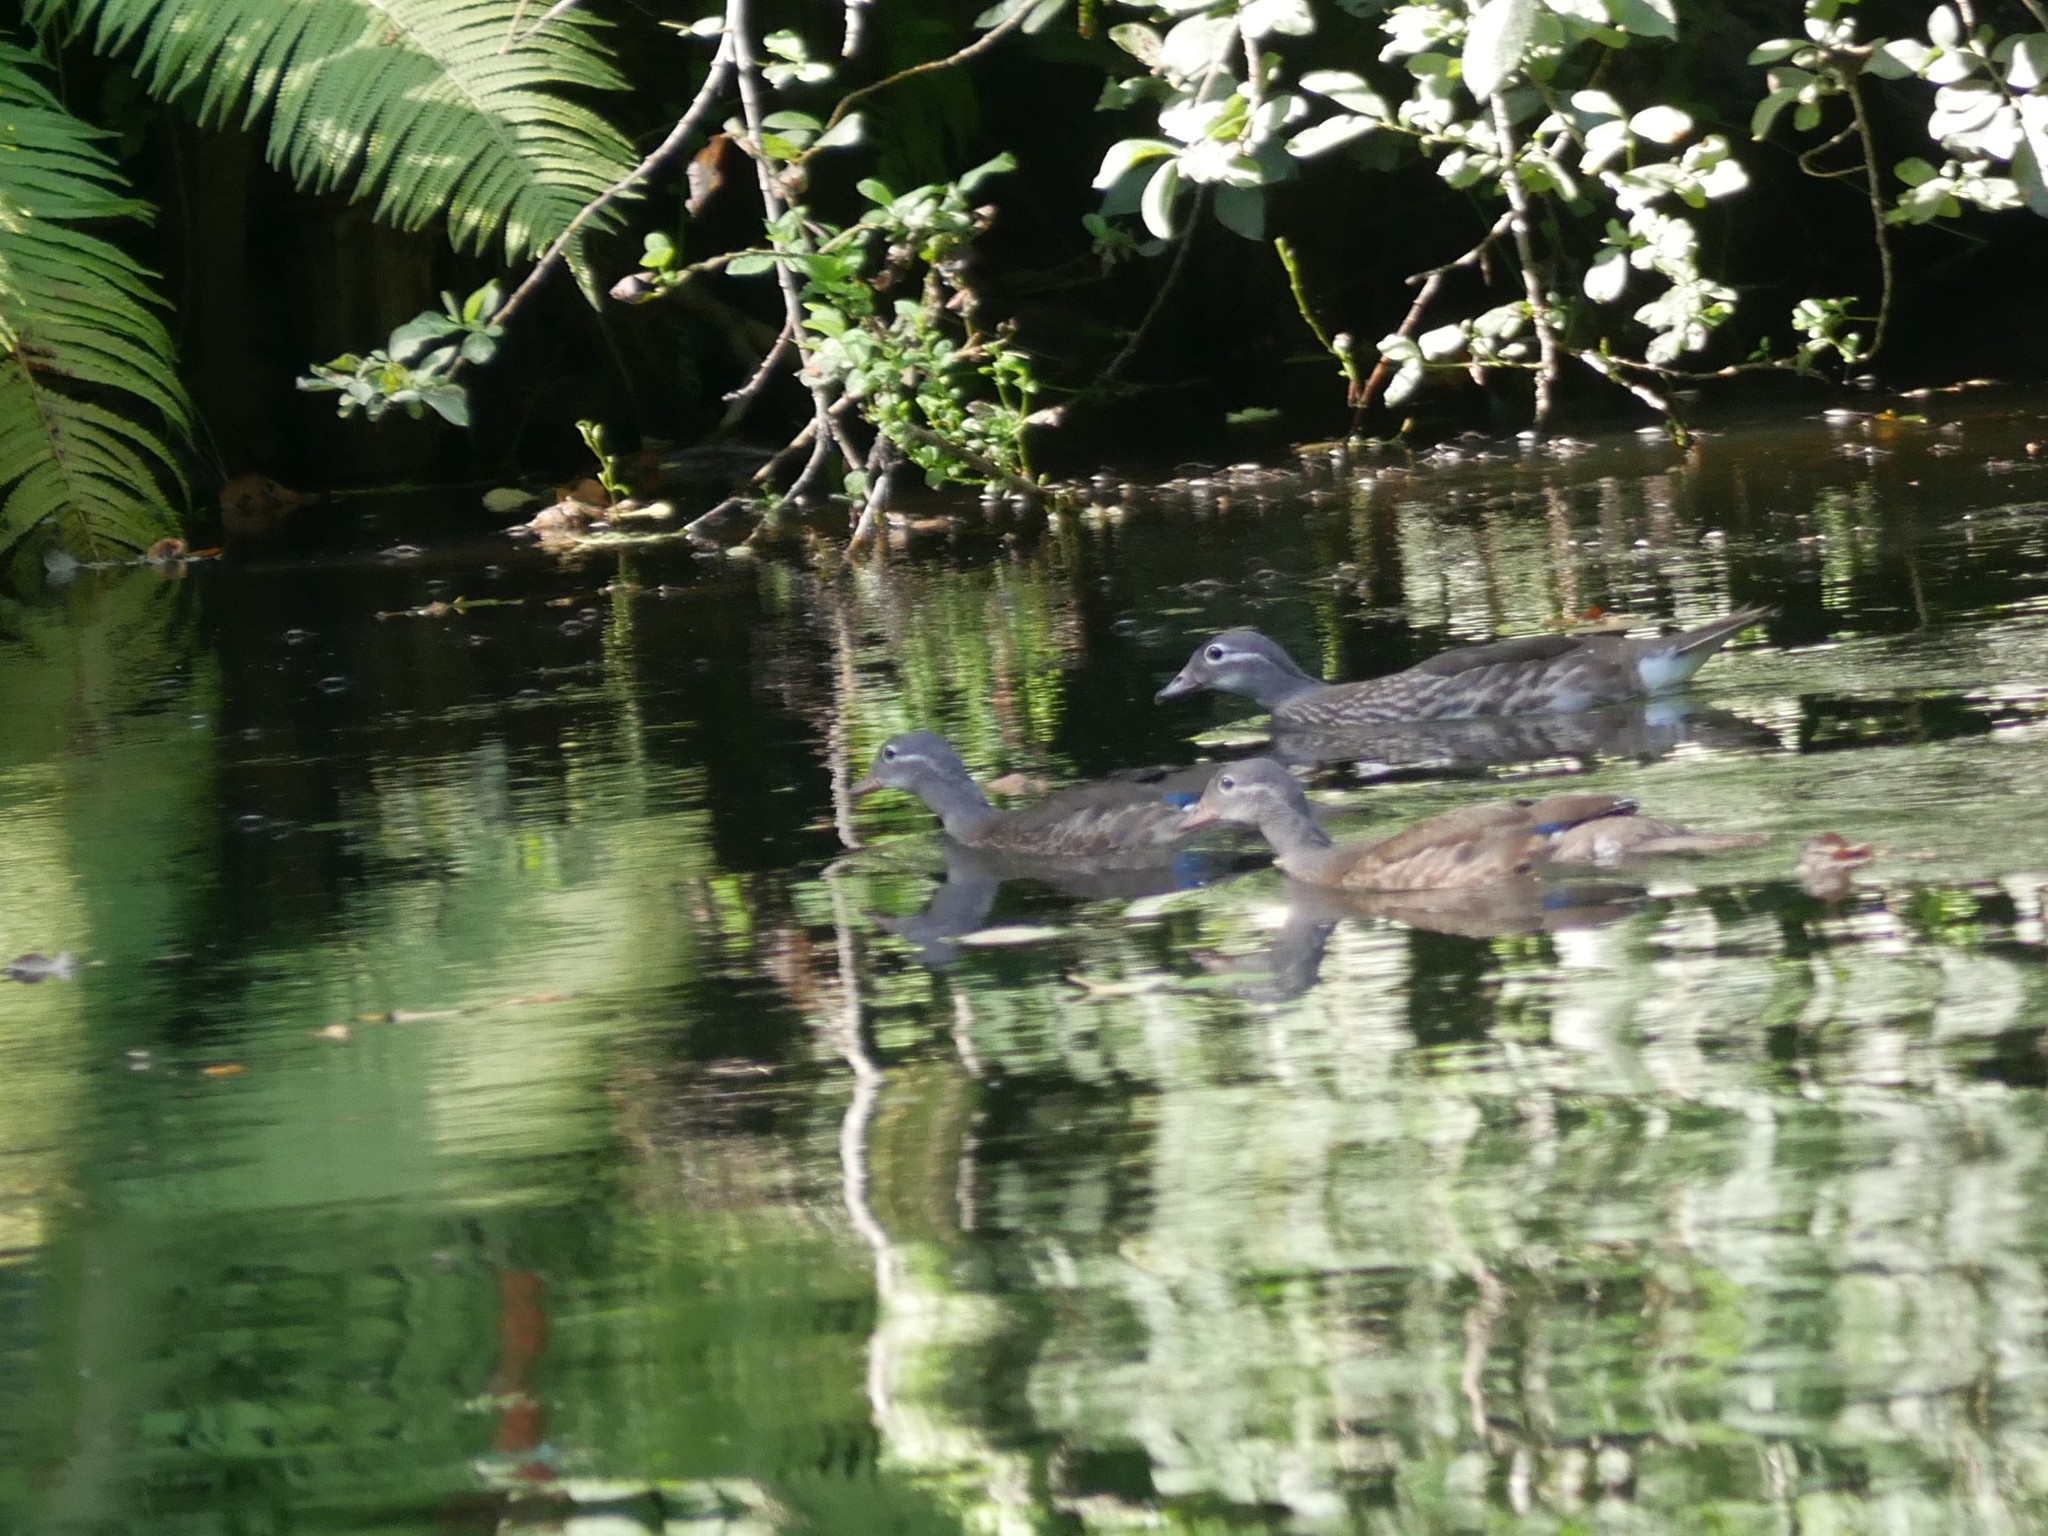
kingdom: Animalia
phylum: Chordata
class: Aves
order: Anseriformes
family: Anatidae
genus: Aix
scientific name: Aix galericulata
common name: Mandarin duck
